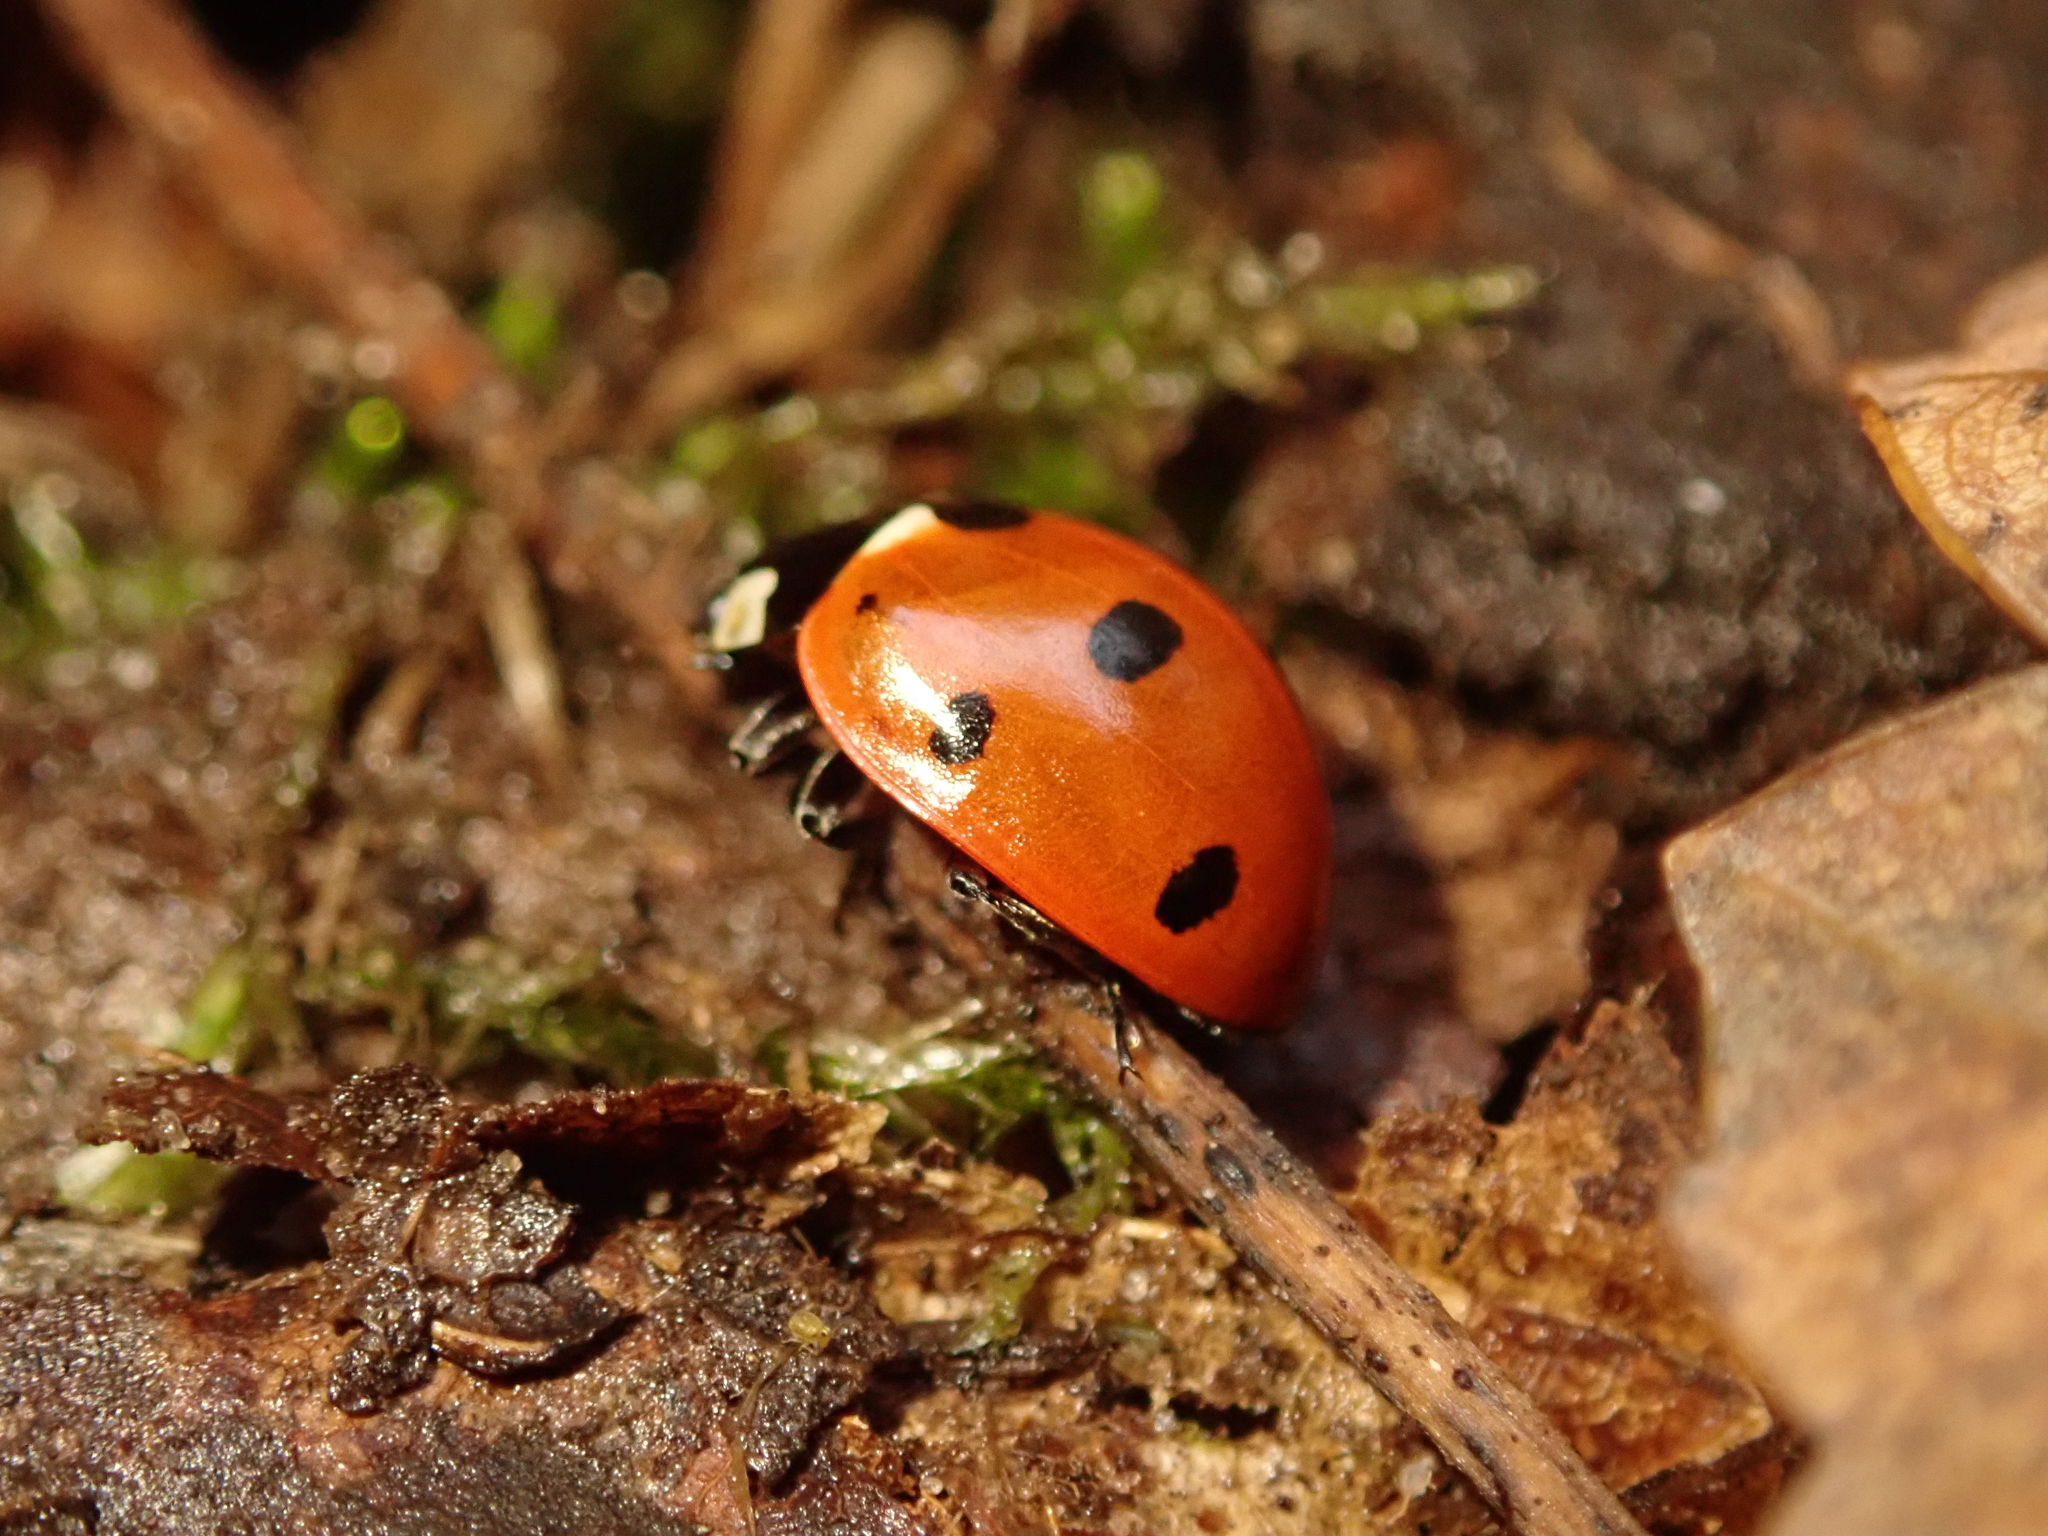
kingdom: Animalia
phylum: Arthropoda
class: Insecta
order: Coleoptera
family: Coccinellidae
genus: Coccinella
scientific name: Coccinella septempunctata
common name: Sevenspotted lady beetle
